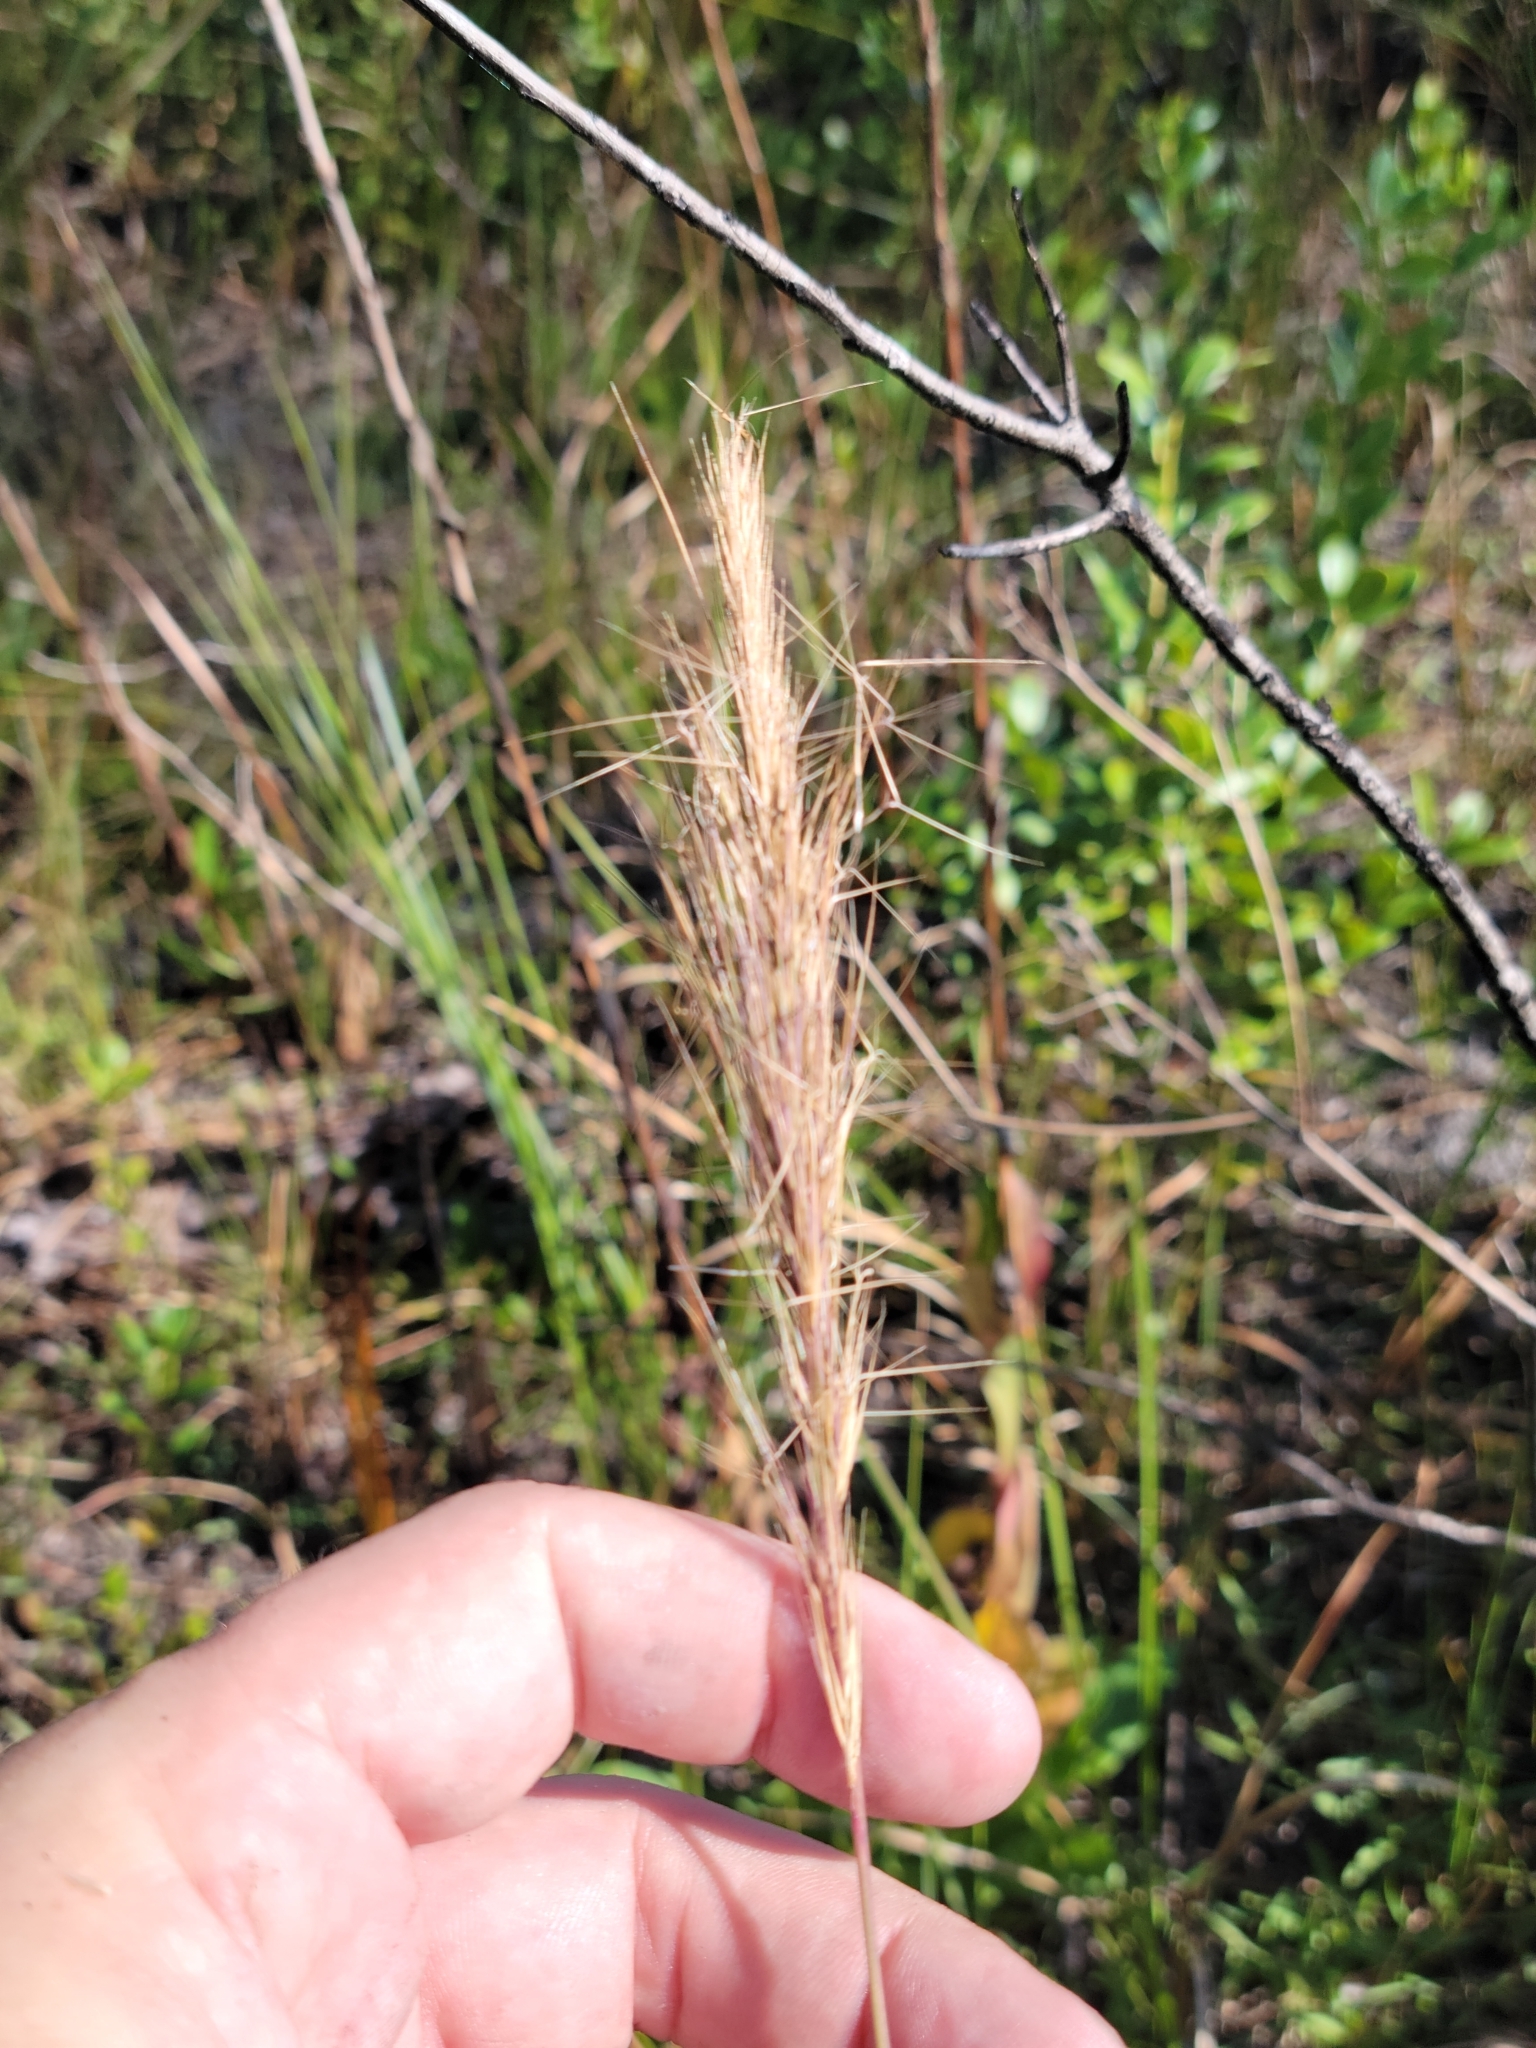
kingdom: Plantae
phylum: Tracheophyta
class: Liliopsida
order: Poales
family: Poaceae
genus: Aristida
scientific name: Aristida spiciformis
